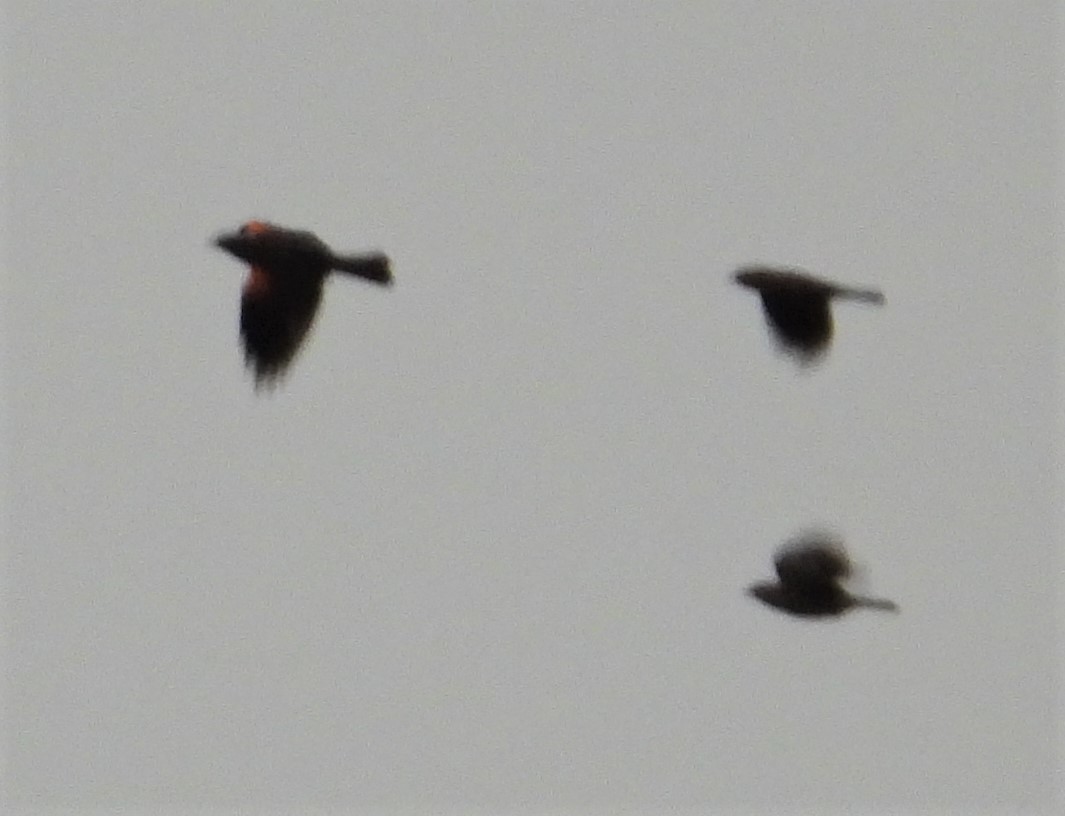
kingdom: Animalia
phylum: Chordata
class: Aves
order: Passeriformes
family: Icteridae
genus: Agelaius
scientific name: Agelaius phoeniceus
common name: Red-winged blackbird
